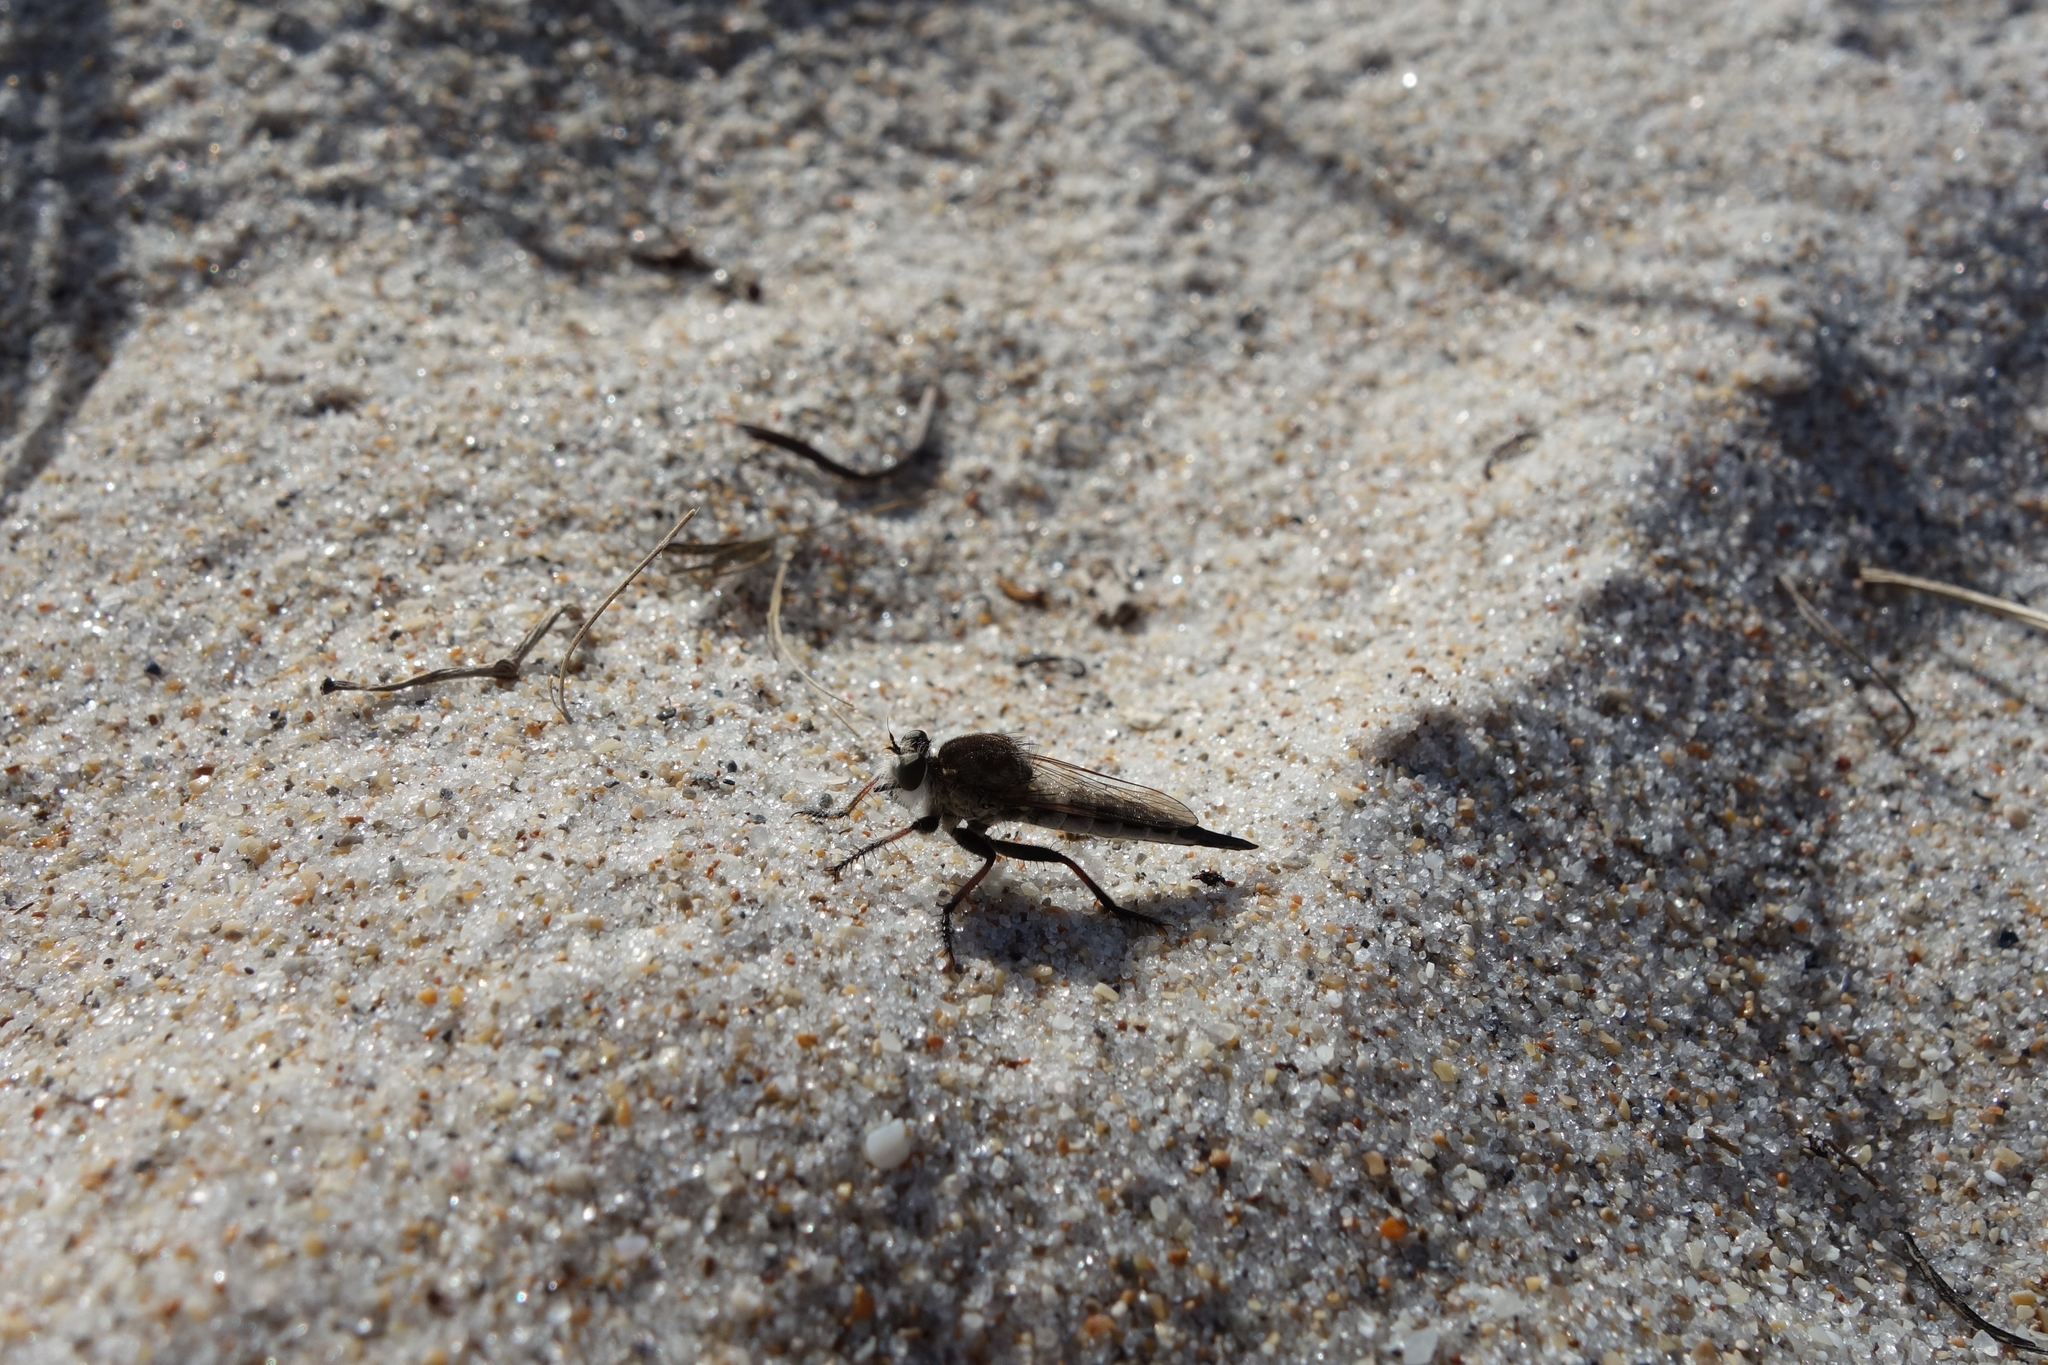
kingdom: Animalia
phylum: Arthropoda
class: Insecta
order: Diptera
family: Asilidae
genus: Efferia
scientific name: Efferia albibarbis
